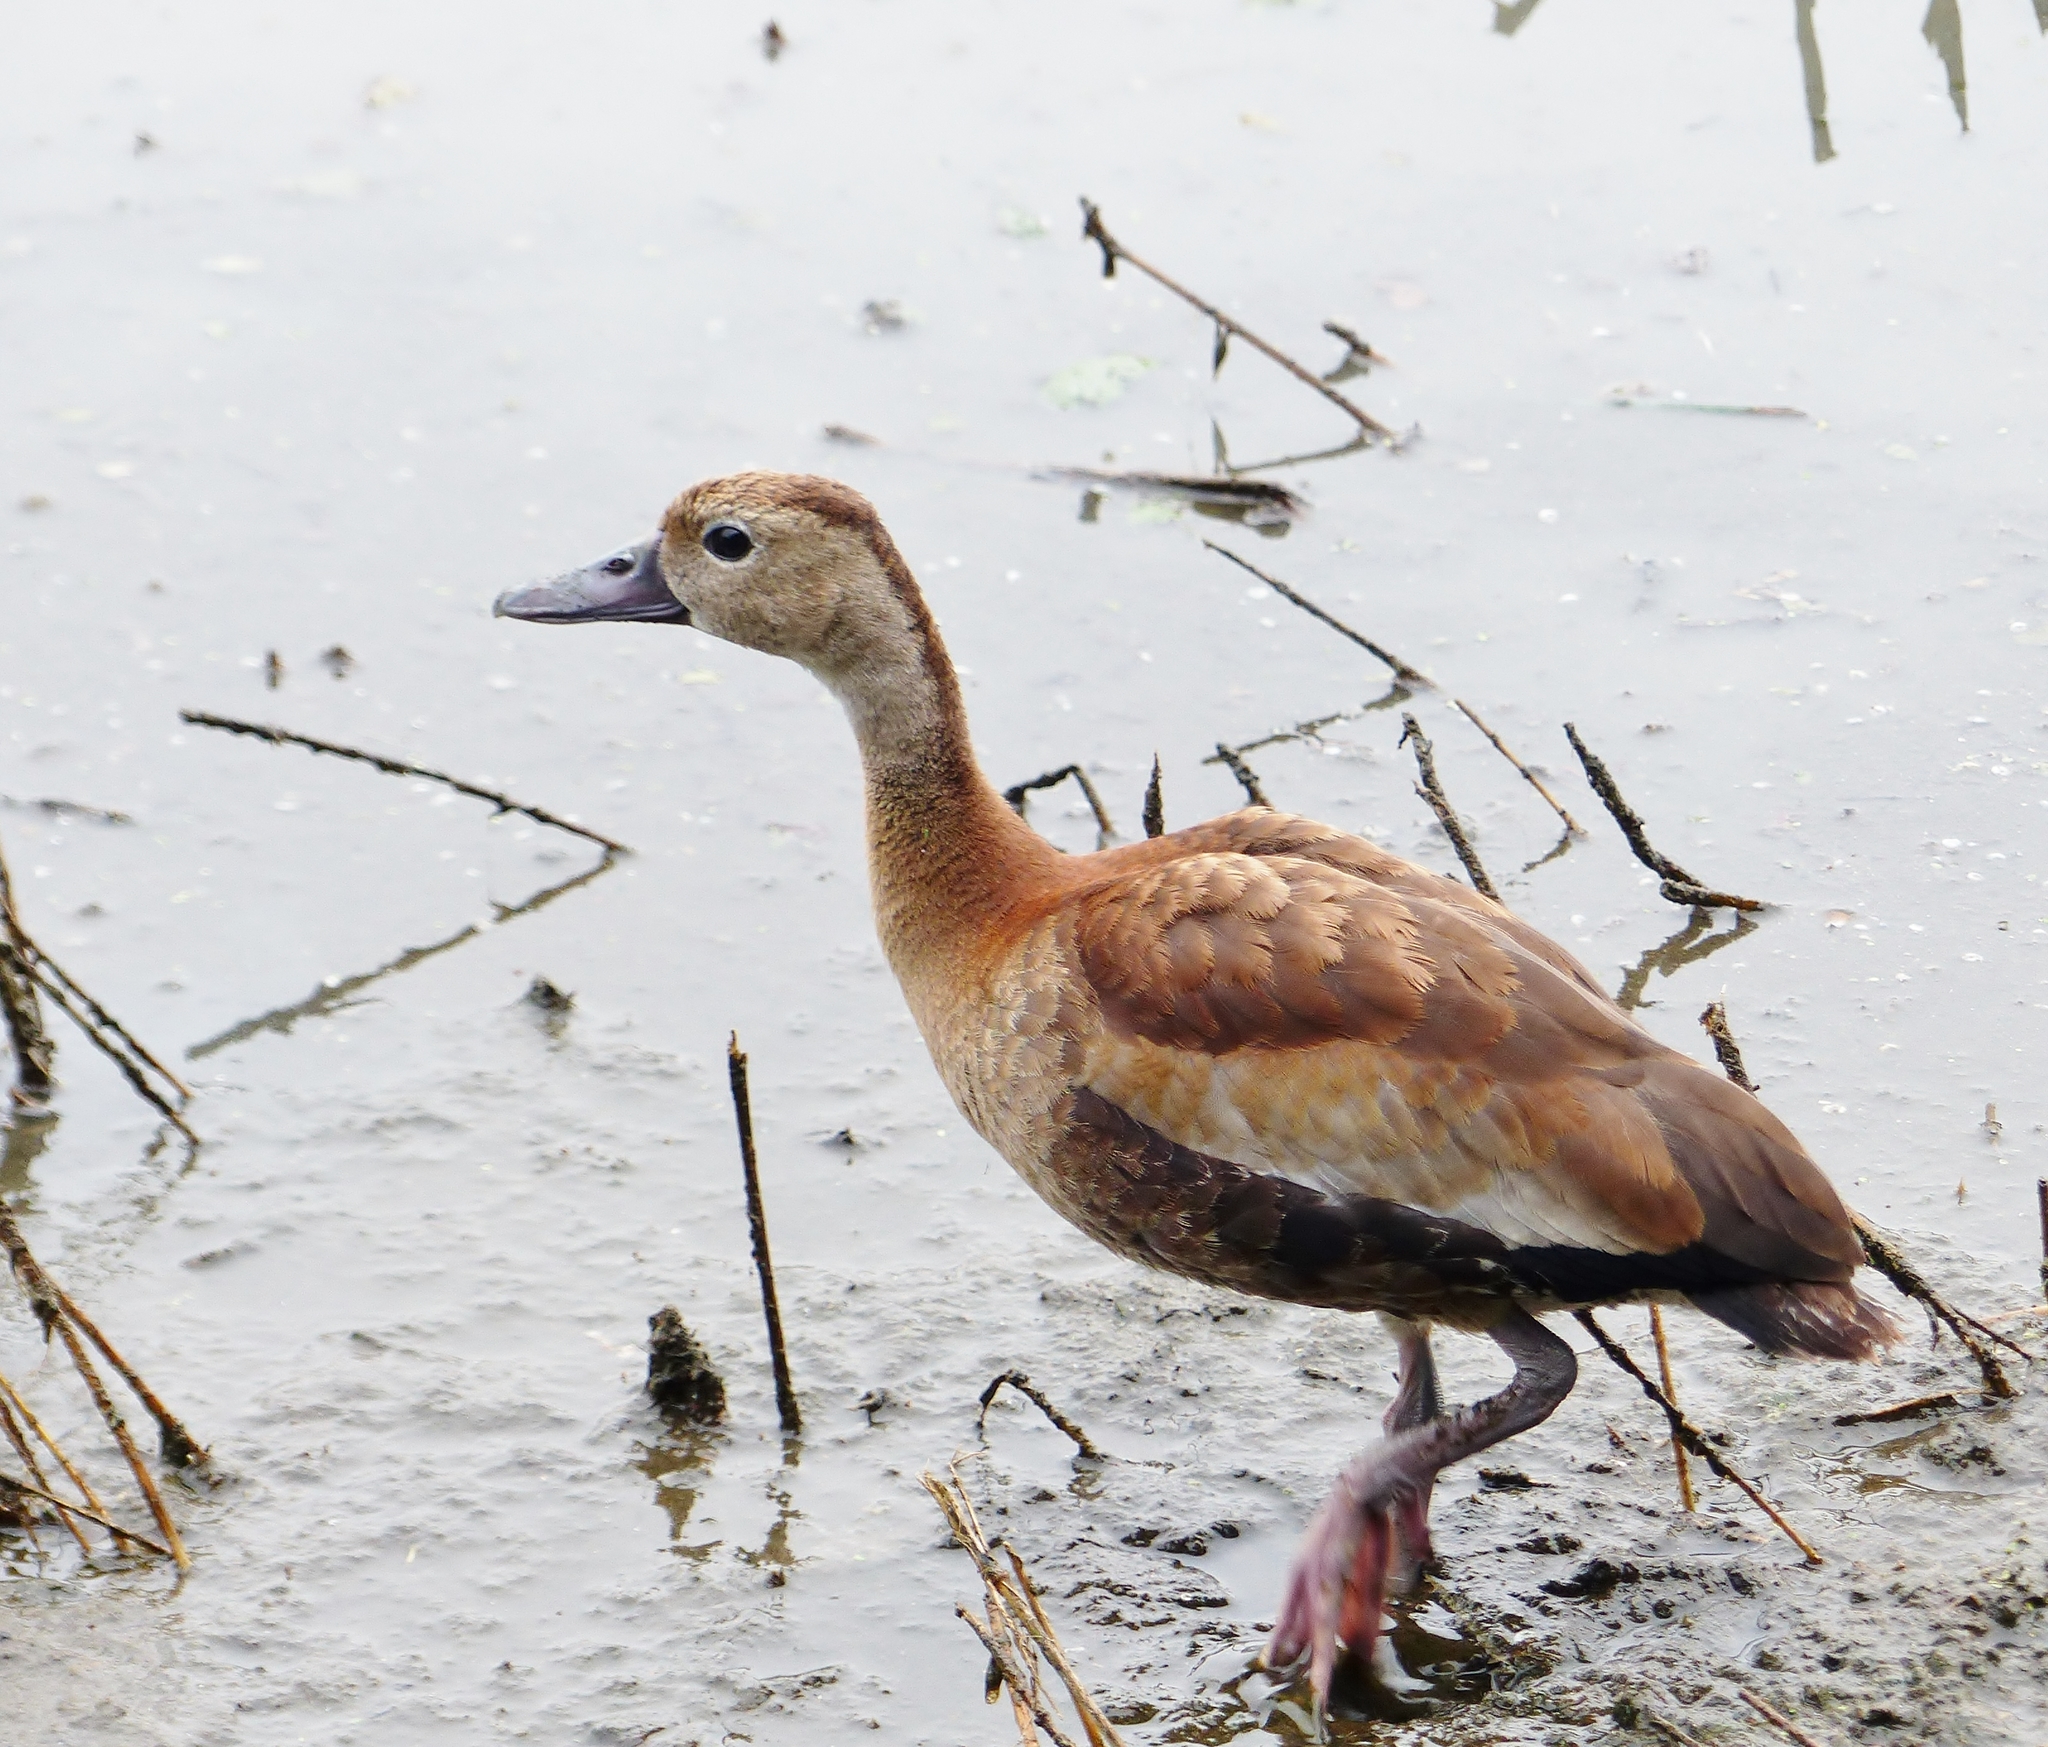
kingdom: Animalia
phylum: Chordata
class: Aves
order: Anseriformes
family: Anatidae
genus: Dendrocygna
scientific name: Dendrocygna autumnalis
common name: Black-bellied whistling duck
